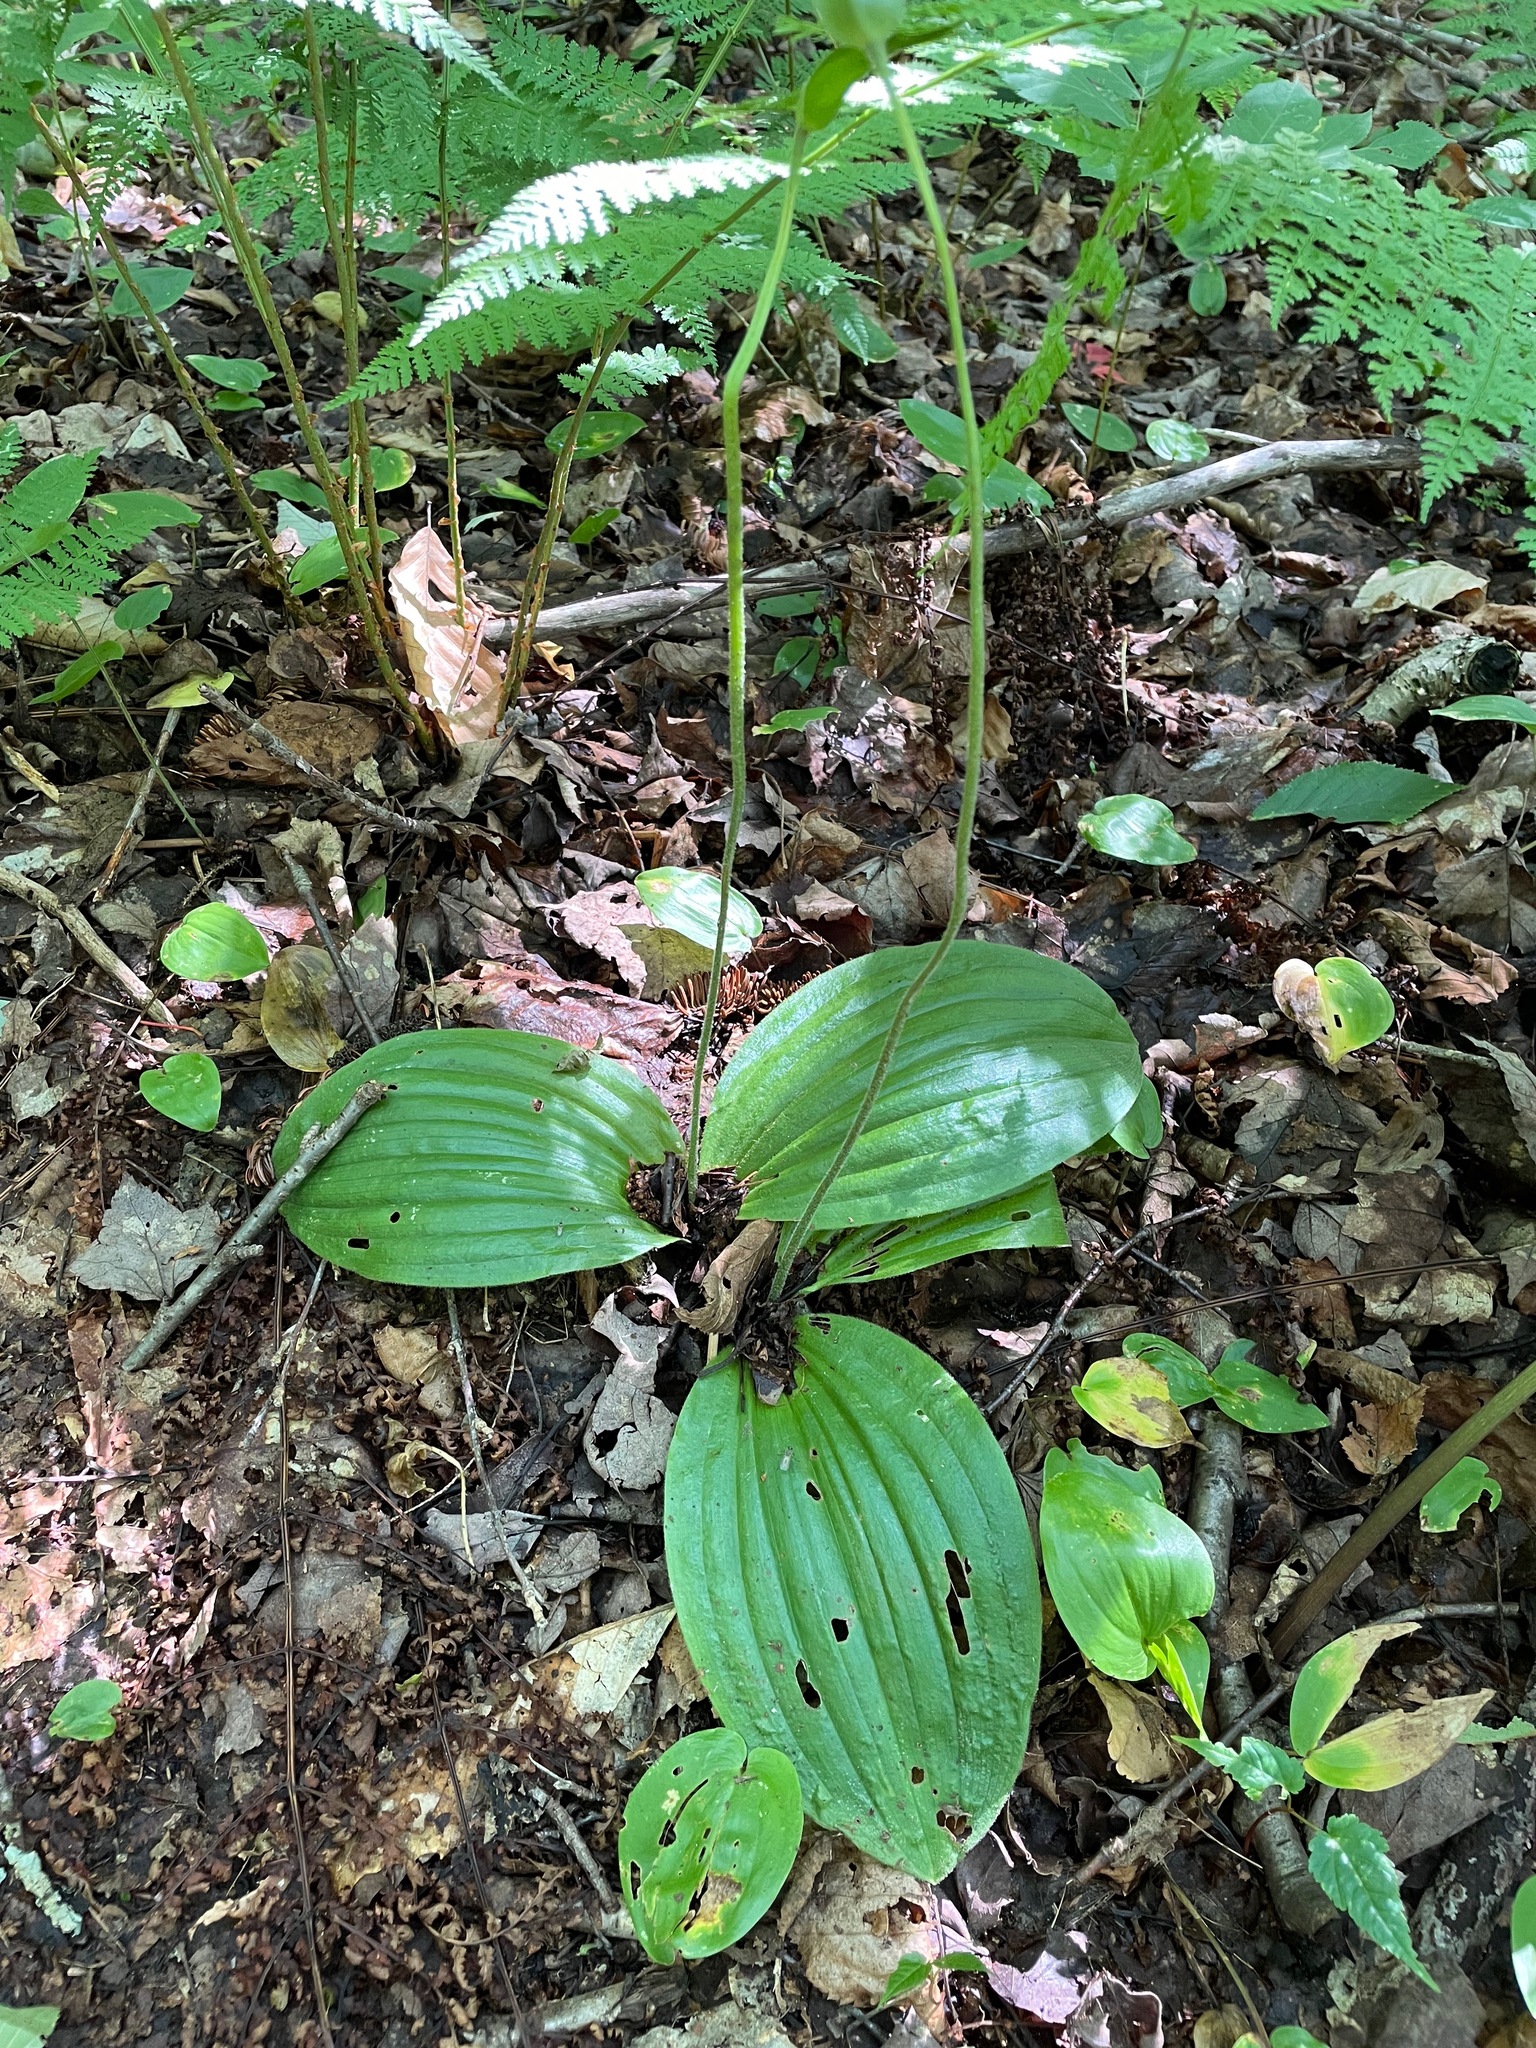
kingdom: Plantae
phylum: Tracheophyta
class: Liliopsida
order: Asparagales
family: Orchidaceae
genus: Cypripedium
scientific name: Cypripedium acaule
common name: Pink lady's-slipper
